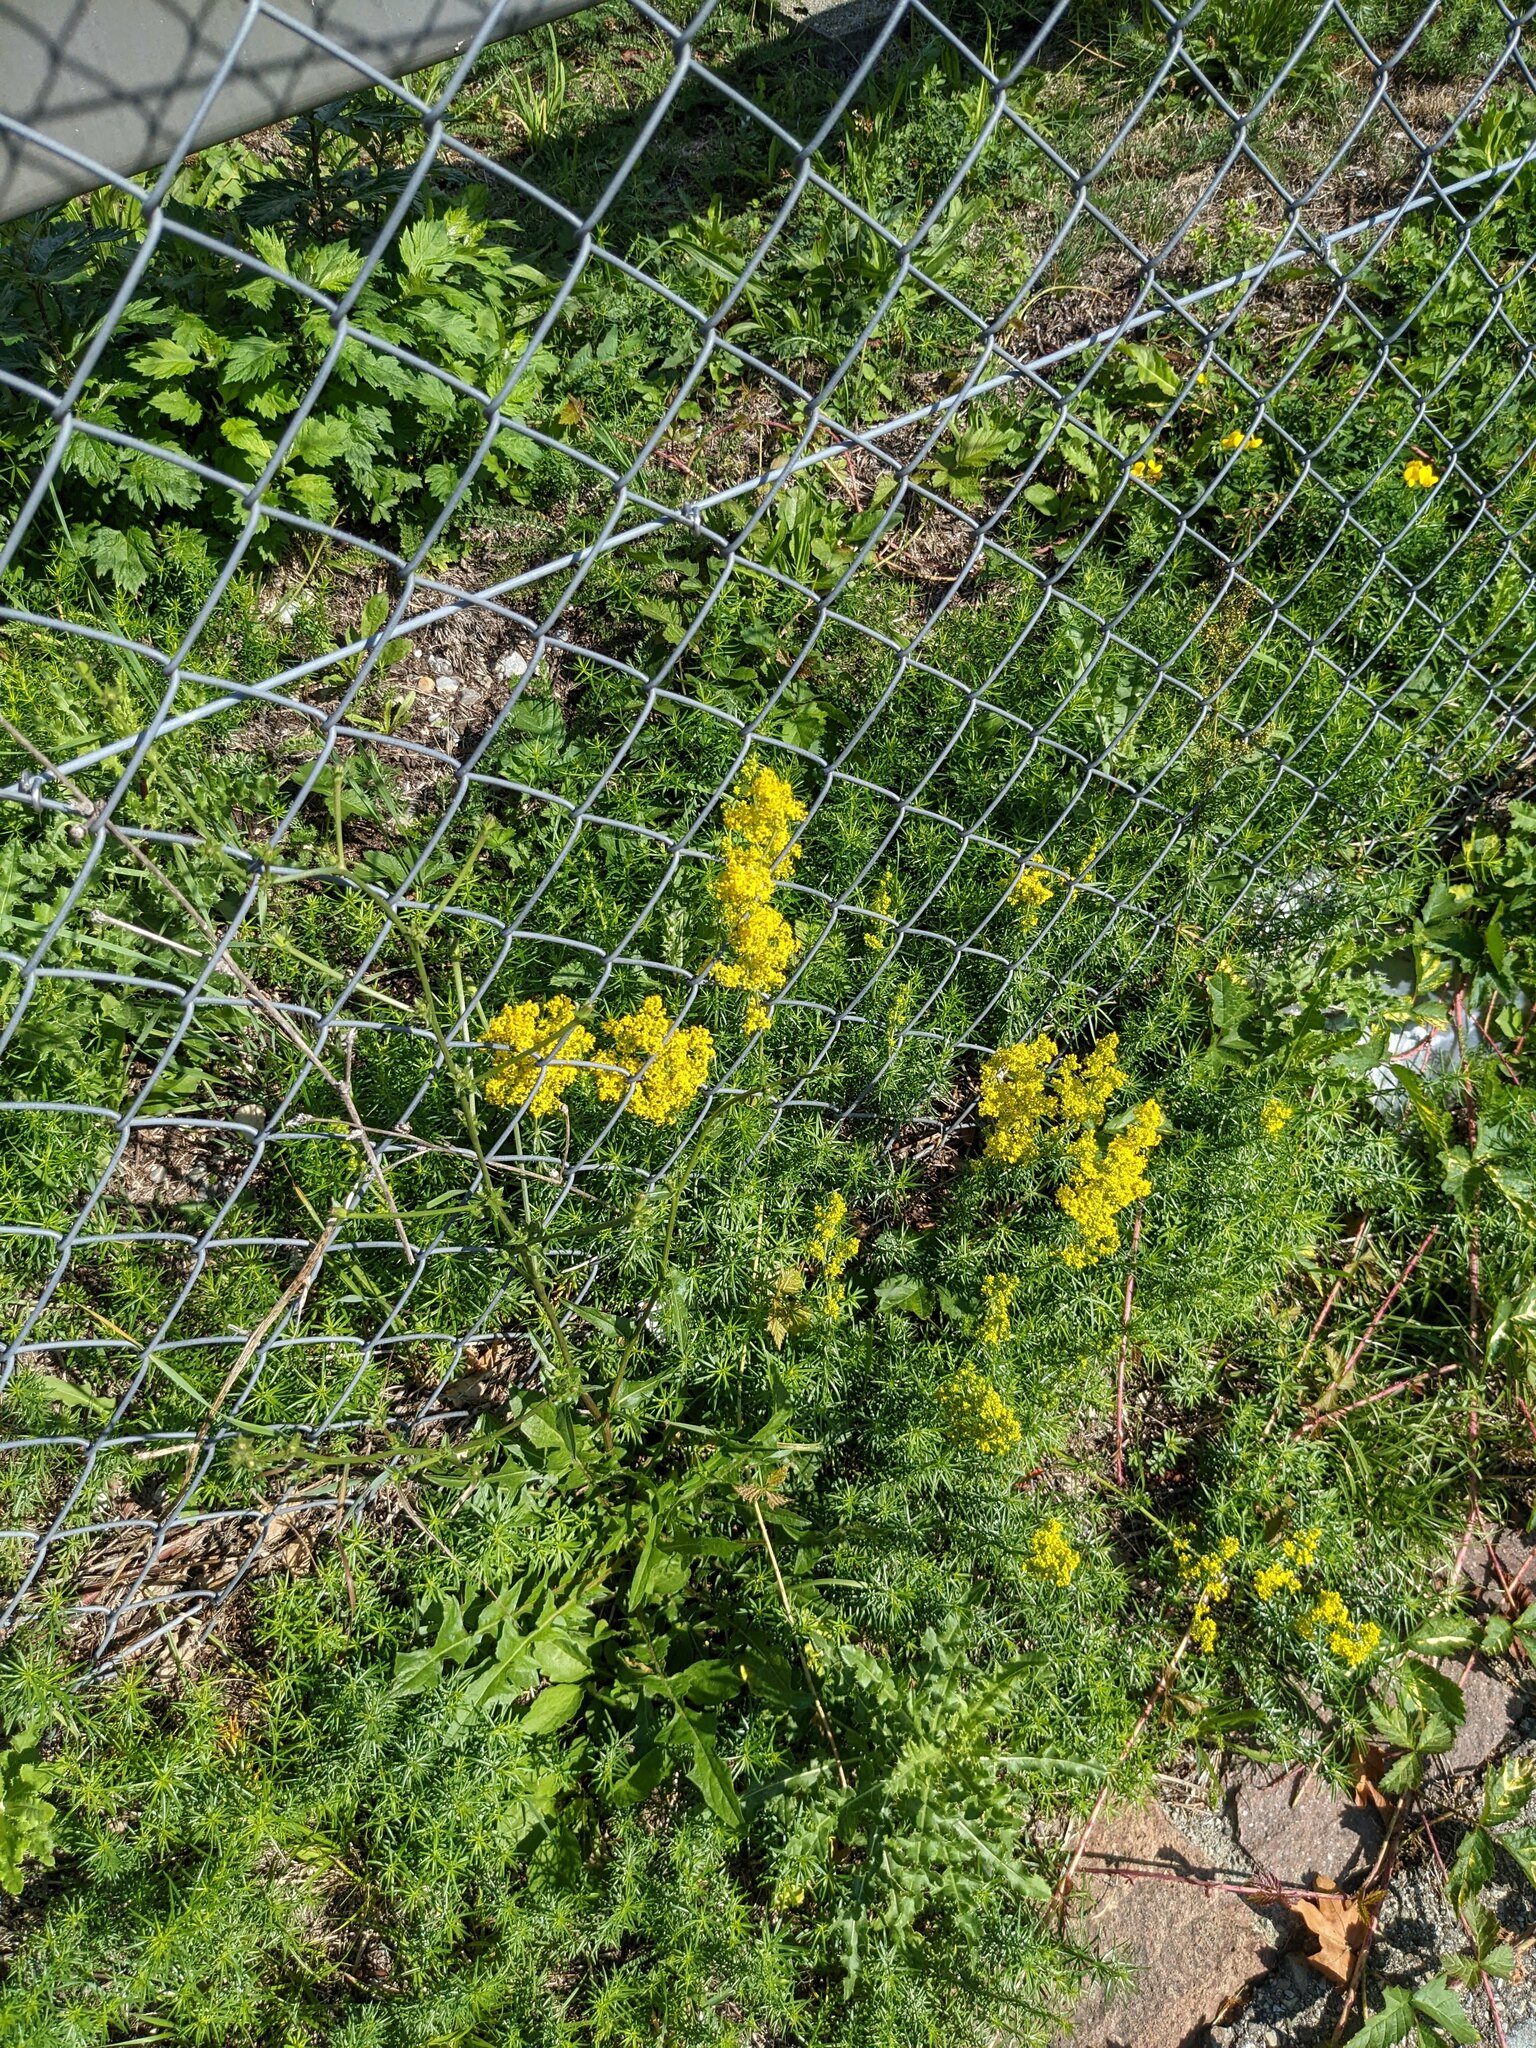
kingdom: Plantae
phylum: Tracheophyta
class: Magnoliopsida
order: Gentianales
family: Rubiaceae
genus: Galium
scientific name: Galium verum
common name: Lady's bedstraw
